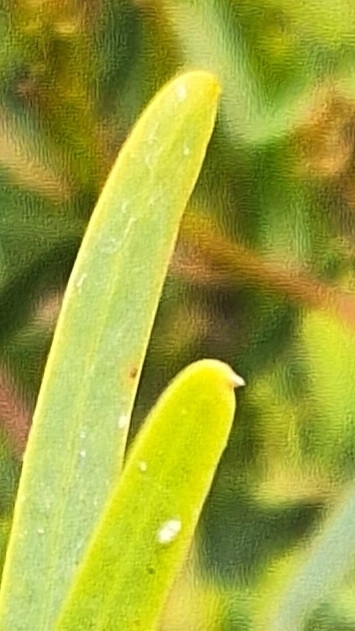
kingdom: Plantae
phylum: Tracheophyta
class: Magnoliopsida
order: Fabales
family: Fabaceae
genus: Acacia
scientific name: Acacia ligulata
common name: Dune wattle
